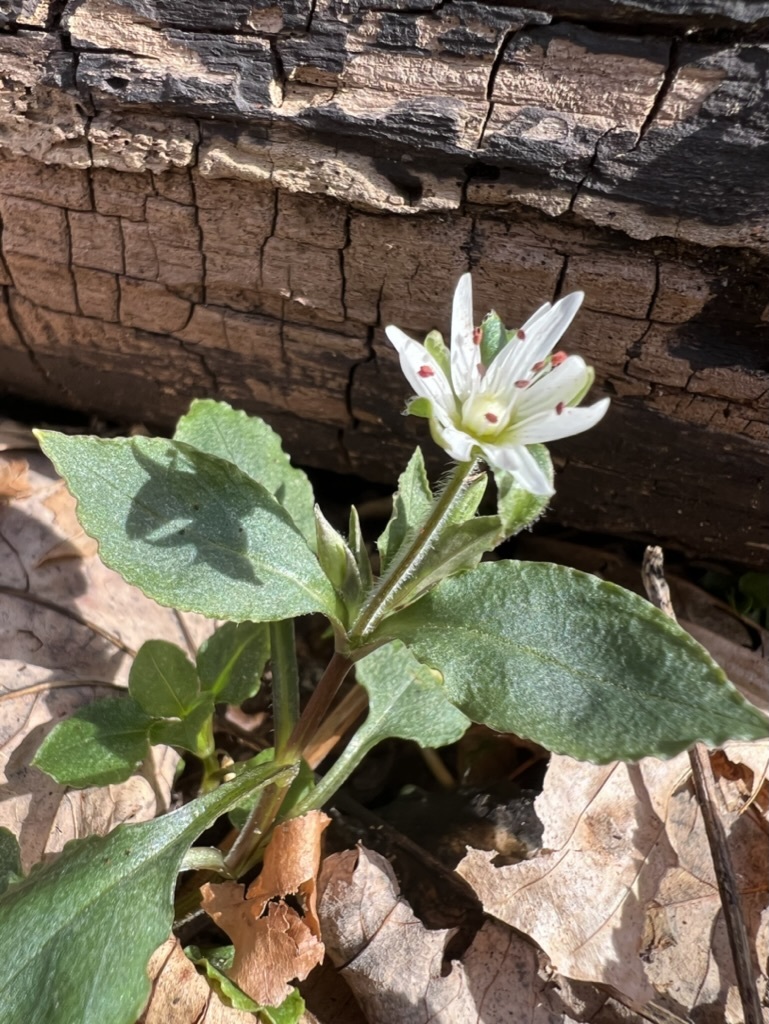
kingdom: Plantae
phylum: Tracheophyta
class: Magnoliopsida
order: Caryophyllales
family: Caryophyllaceae
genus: Stellaria
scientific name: Stellaria pubera
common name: Star chickweed
